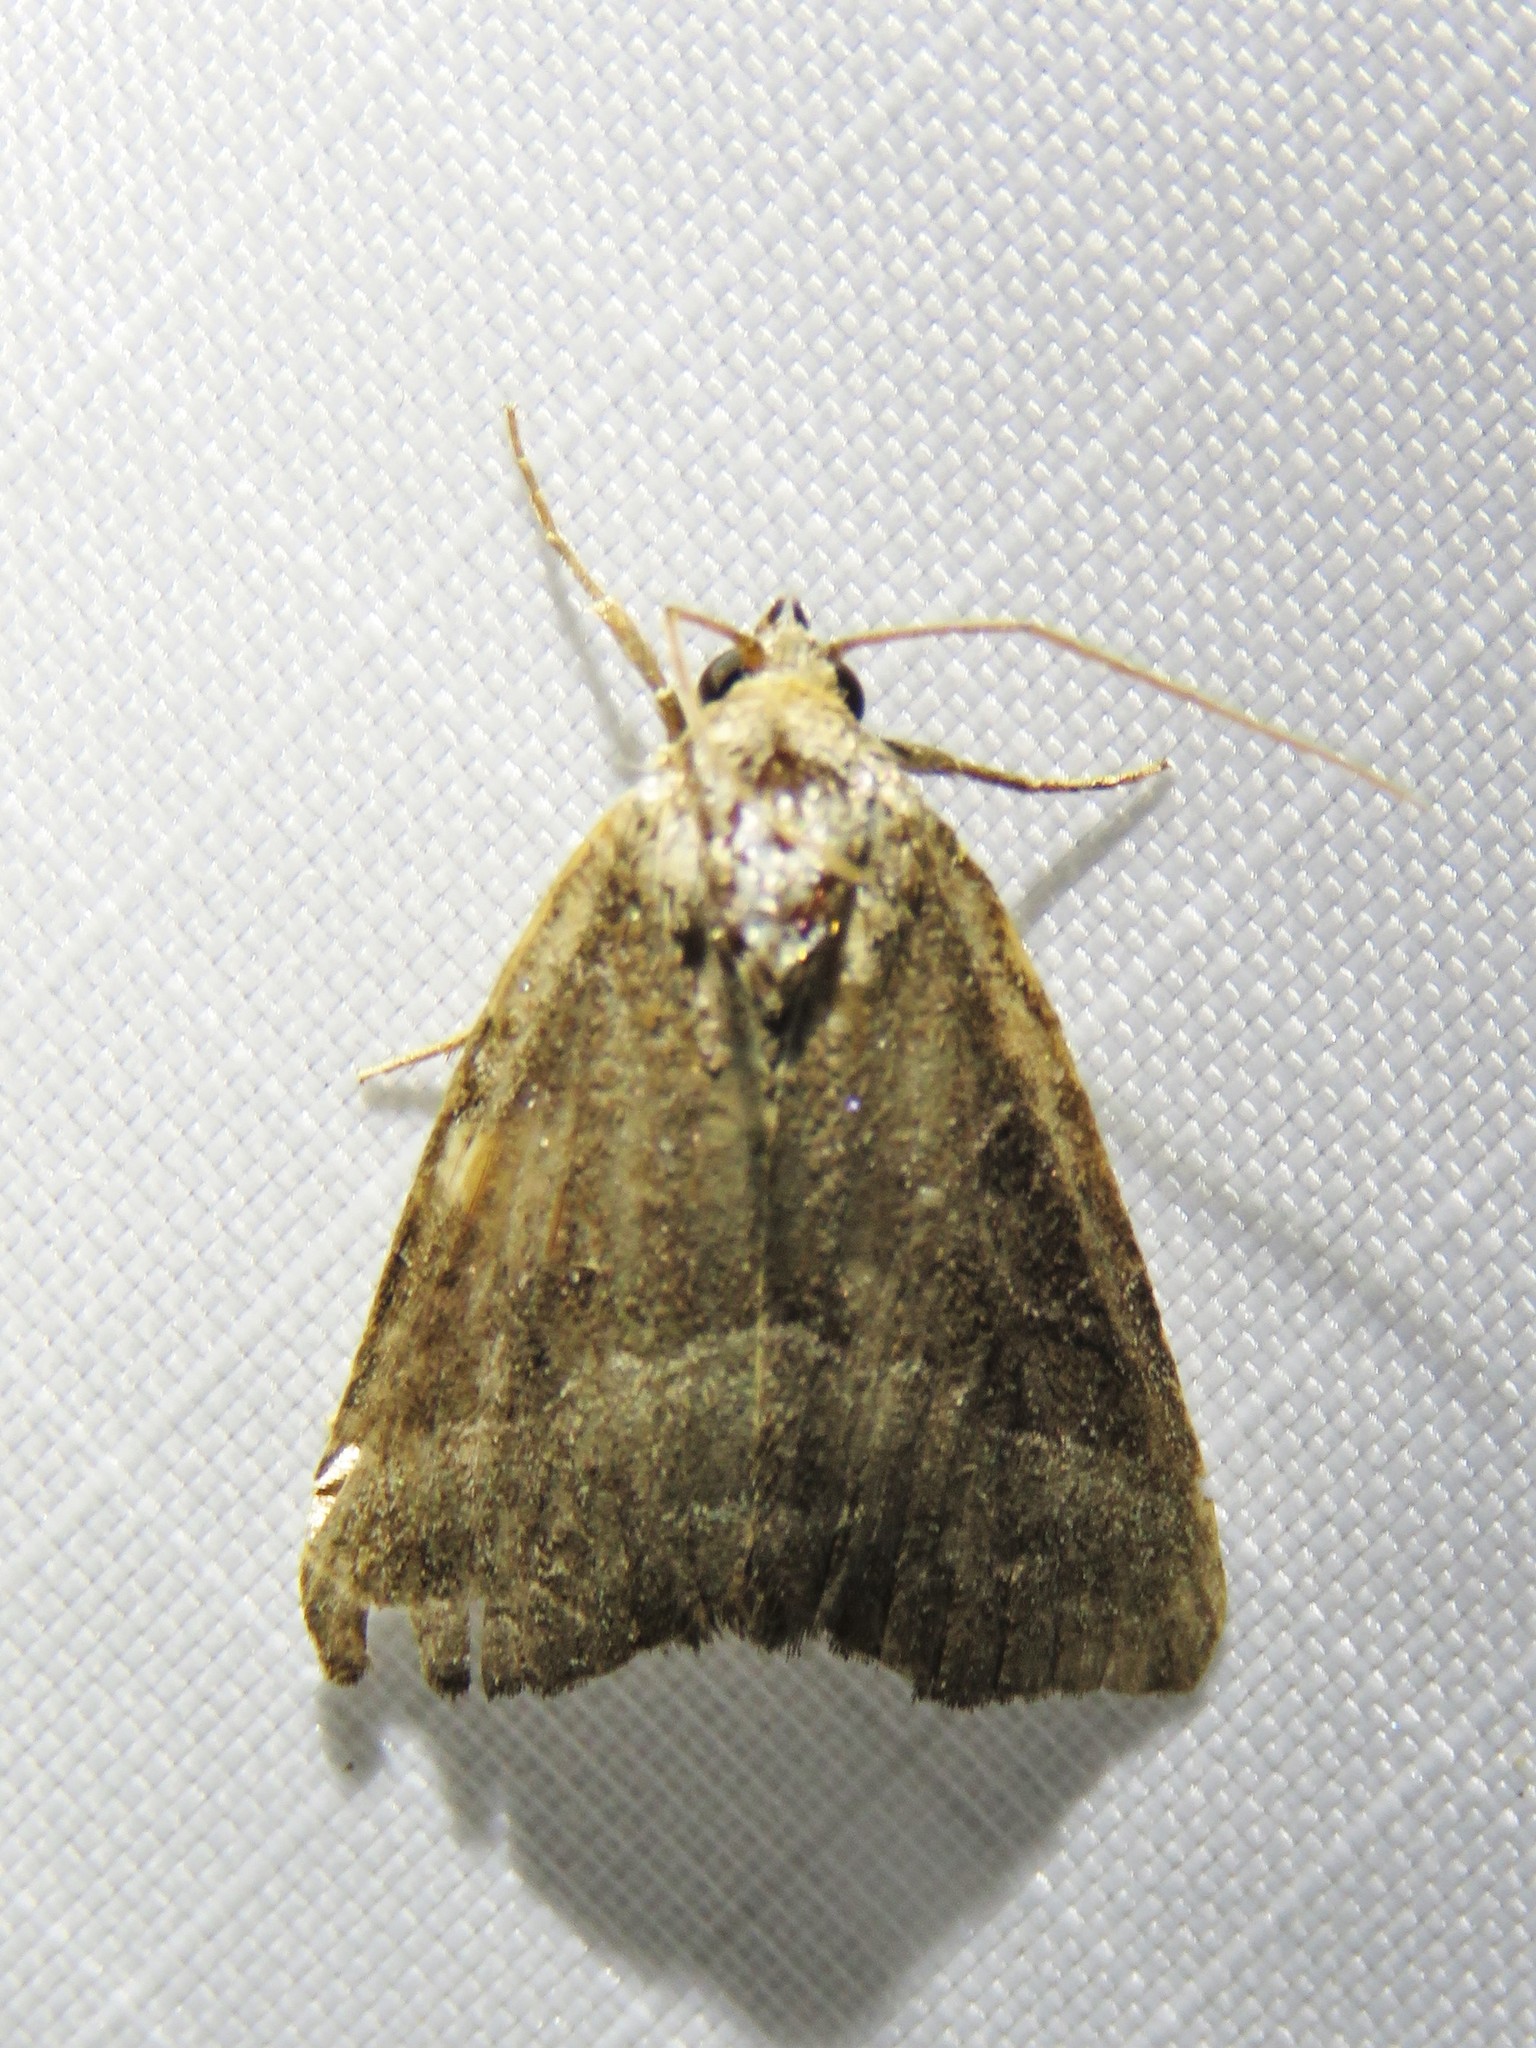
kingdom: Animalia
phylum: Arthropoda
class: Insecta
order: Lepidoptera
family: Noctuidae
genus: Ogdoconta
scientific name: Ogdoconta cinereola
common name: Common pinkband
